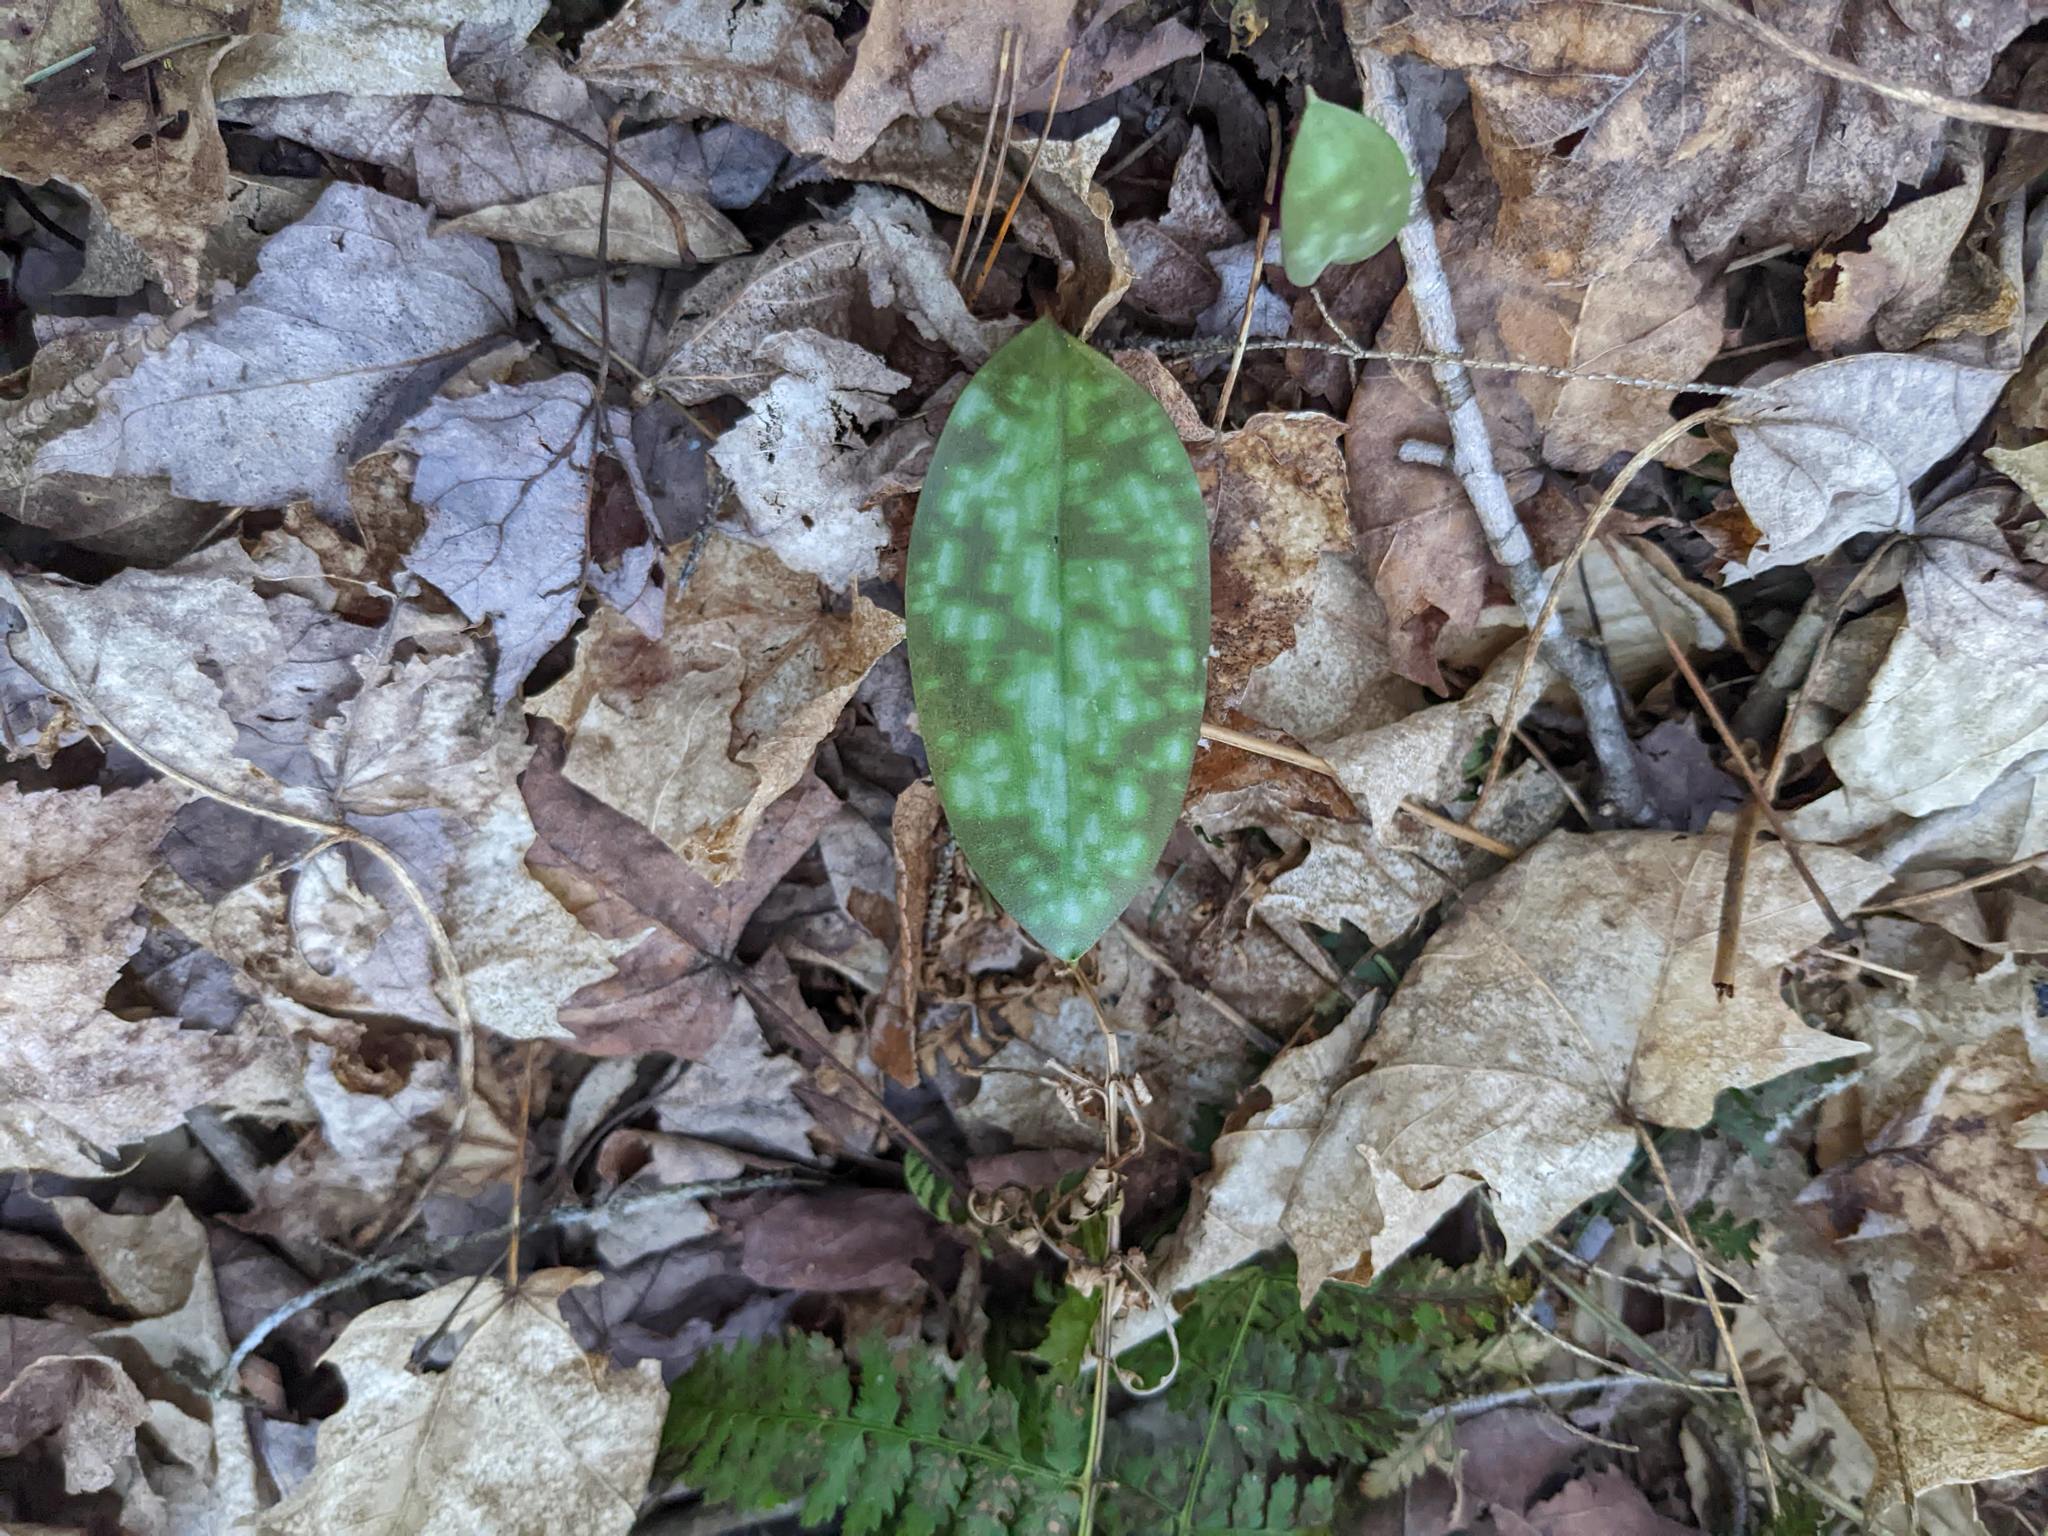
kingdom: Plantae
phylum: Tracheophyta
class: Liliopsida
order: Liliales
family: Liliaceae
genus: Erythronium
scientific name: Erythronium americanum
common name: Yellow adder's-tongue
